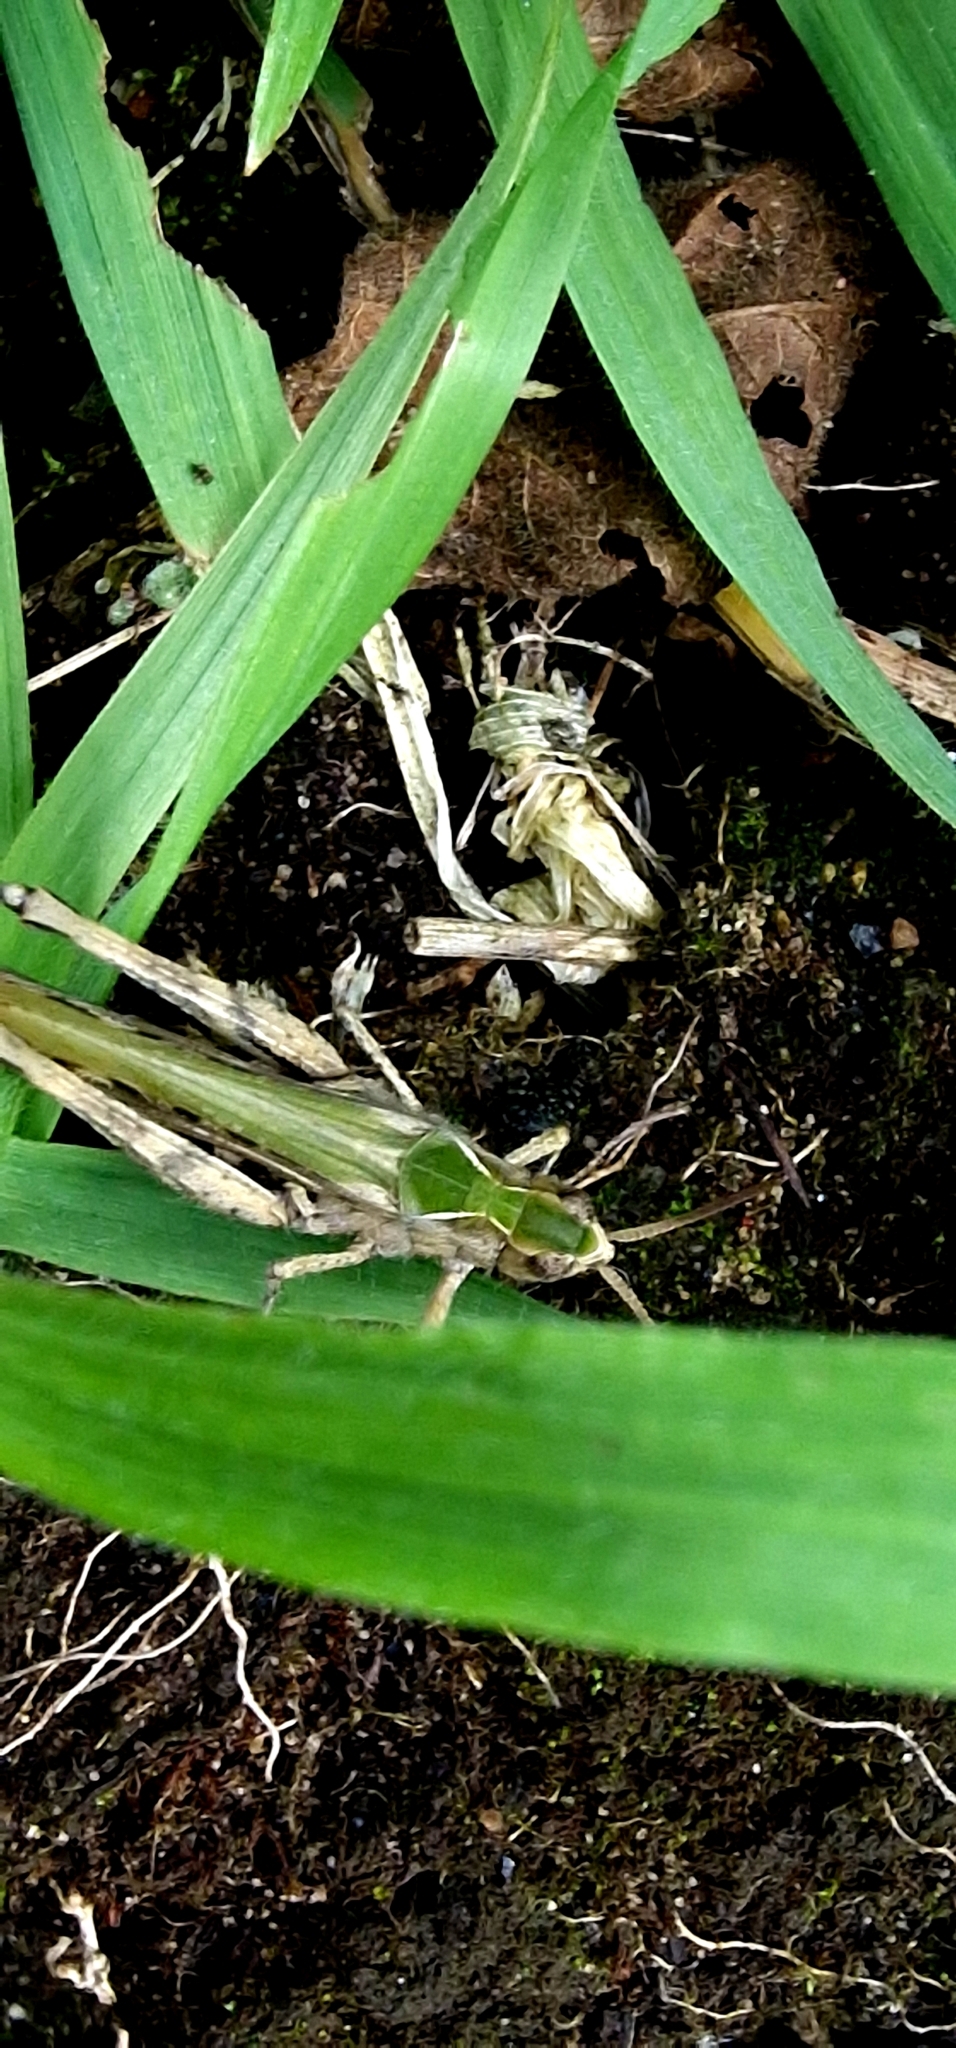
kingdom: Animalia
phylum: Arthropoda
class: Insecta
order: Orthoptera
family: Acrididae
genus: Chorthippus
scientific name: Chorthippus brunneus
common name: Field grasshopper
